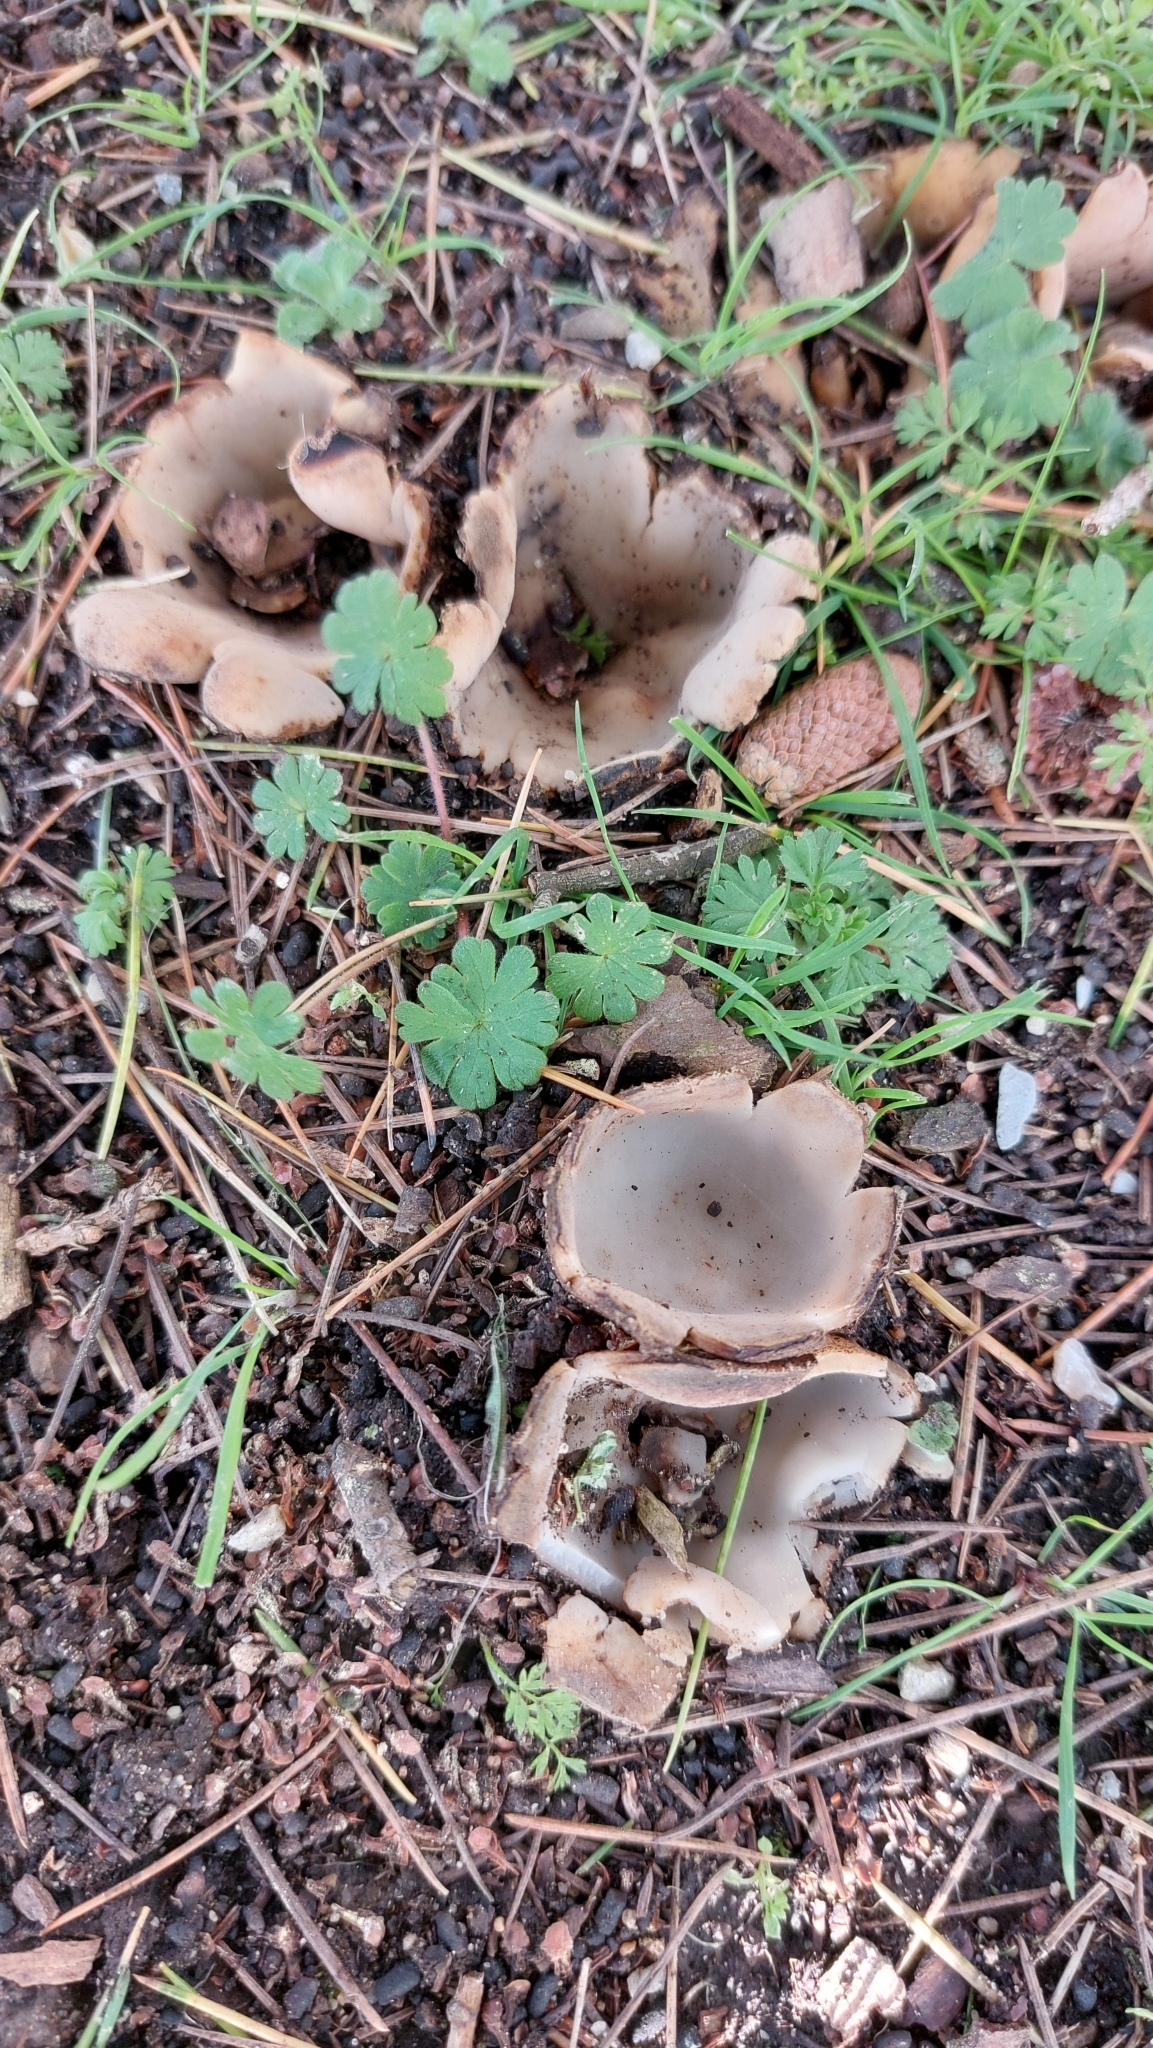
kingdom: Fungi
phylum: Ascomycota
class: Pezizomycetes
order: Pezizales
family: Pyronemataceae
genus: Geopora
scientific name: Geopora sumneriana
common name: Cedar cup
